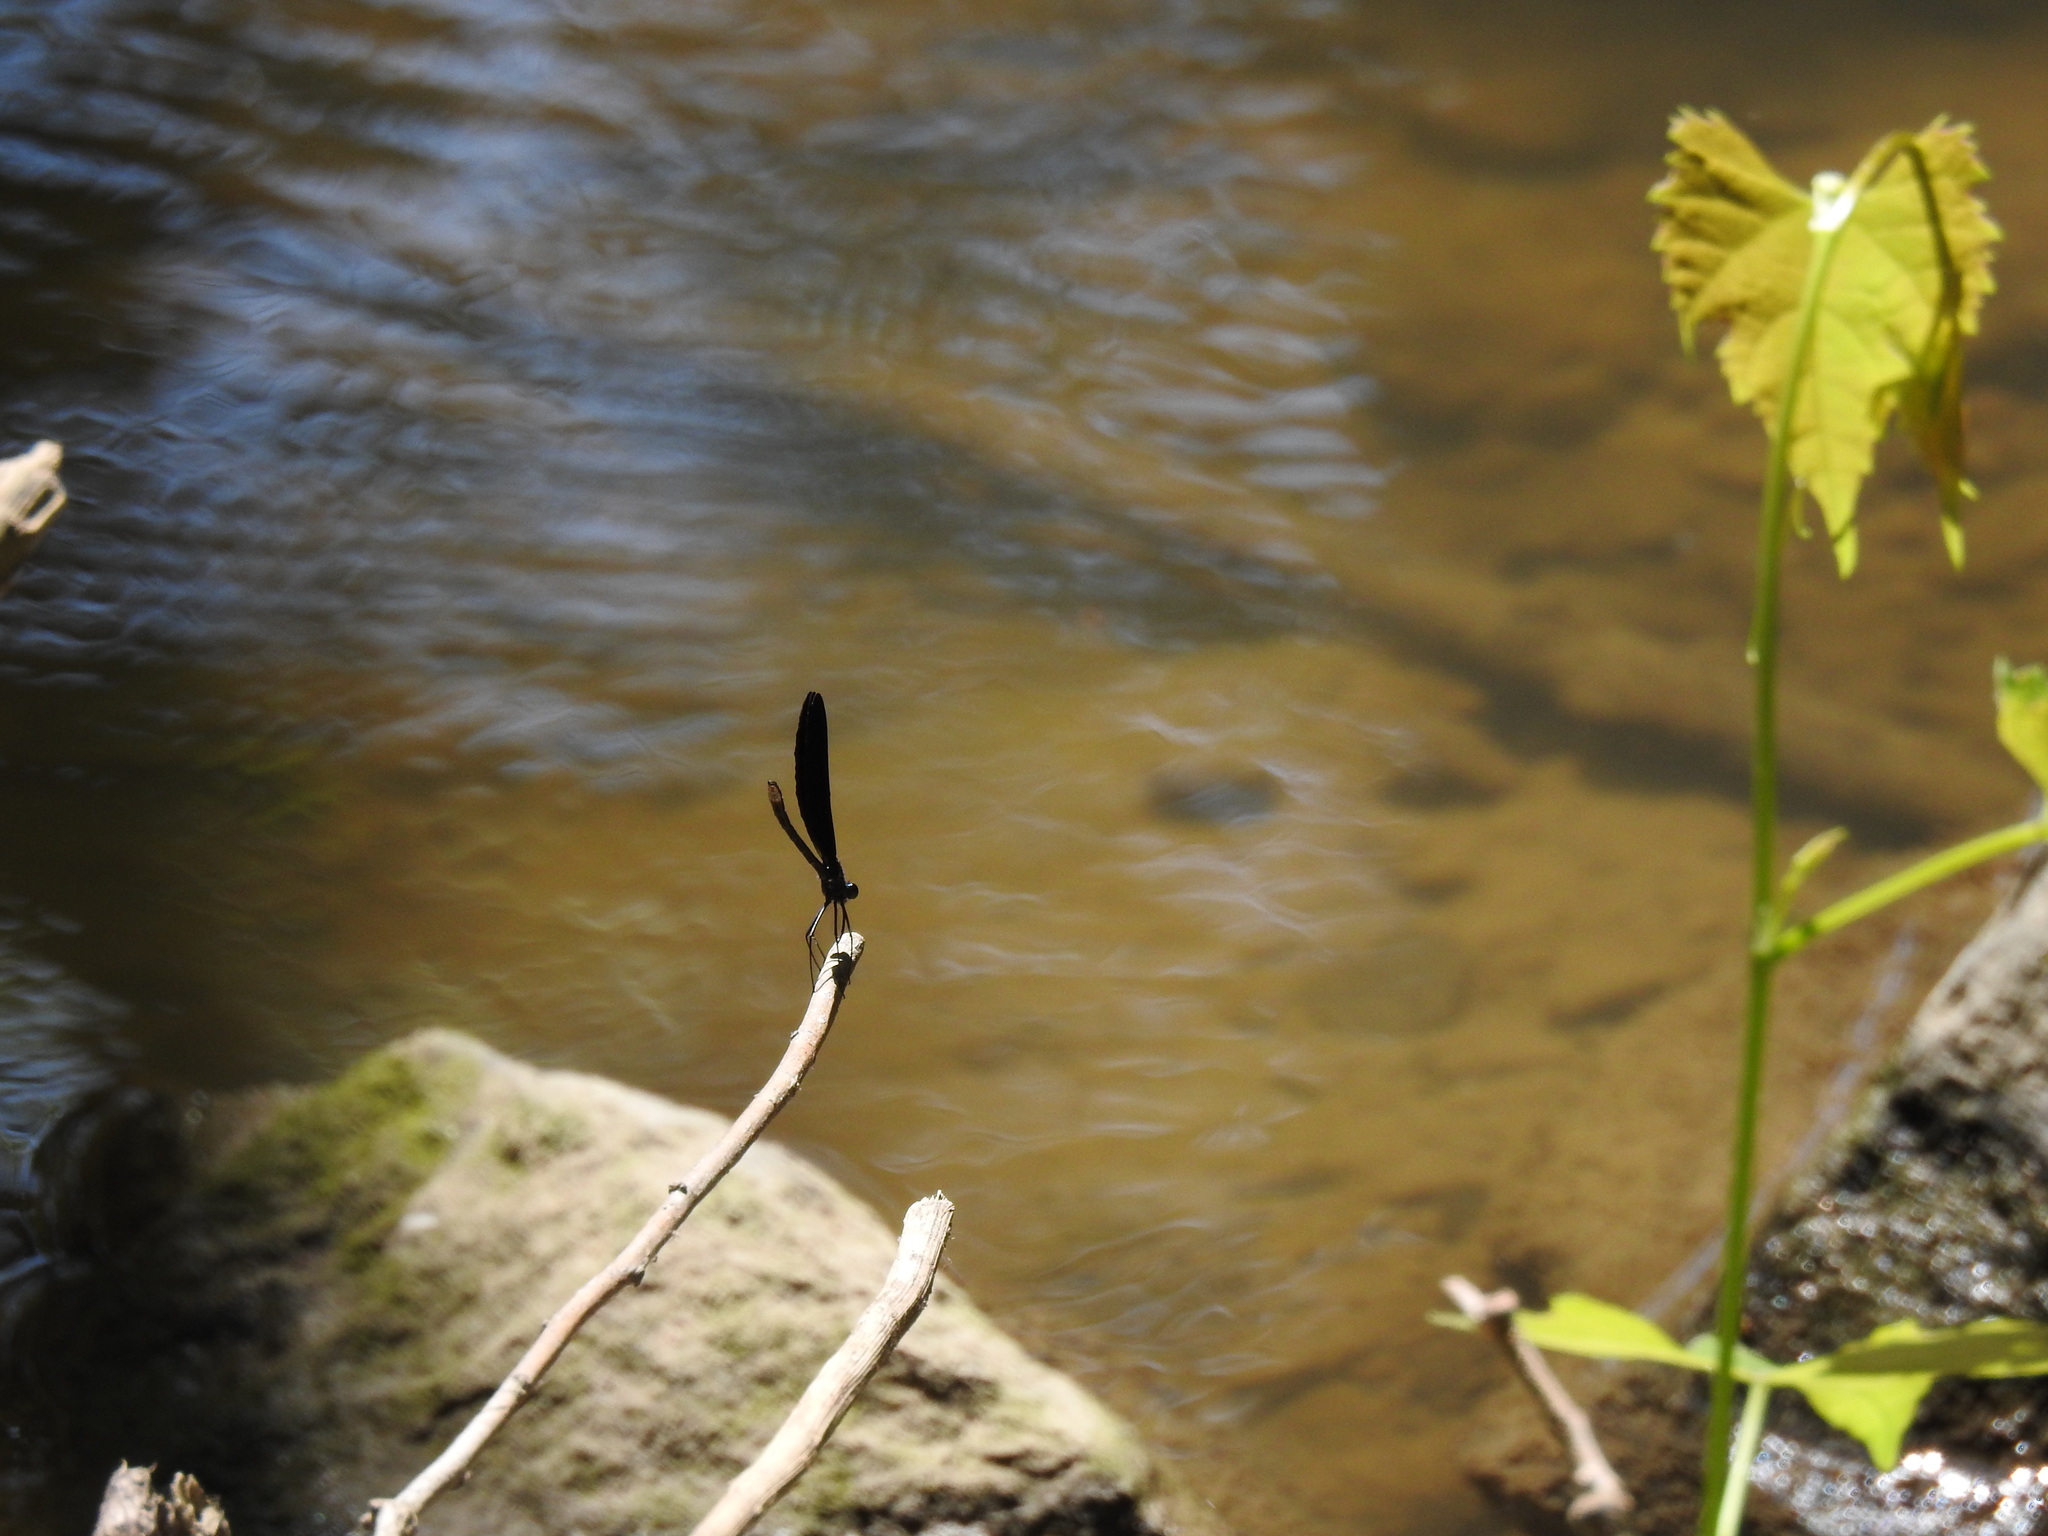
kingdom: Animalia
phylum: Arthropoda
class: Insecta
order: Odonata
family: Calopterygidae
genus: Calopteryx
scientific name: Calopteryx maculata
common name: Ebony jewelwing
